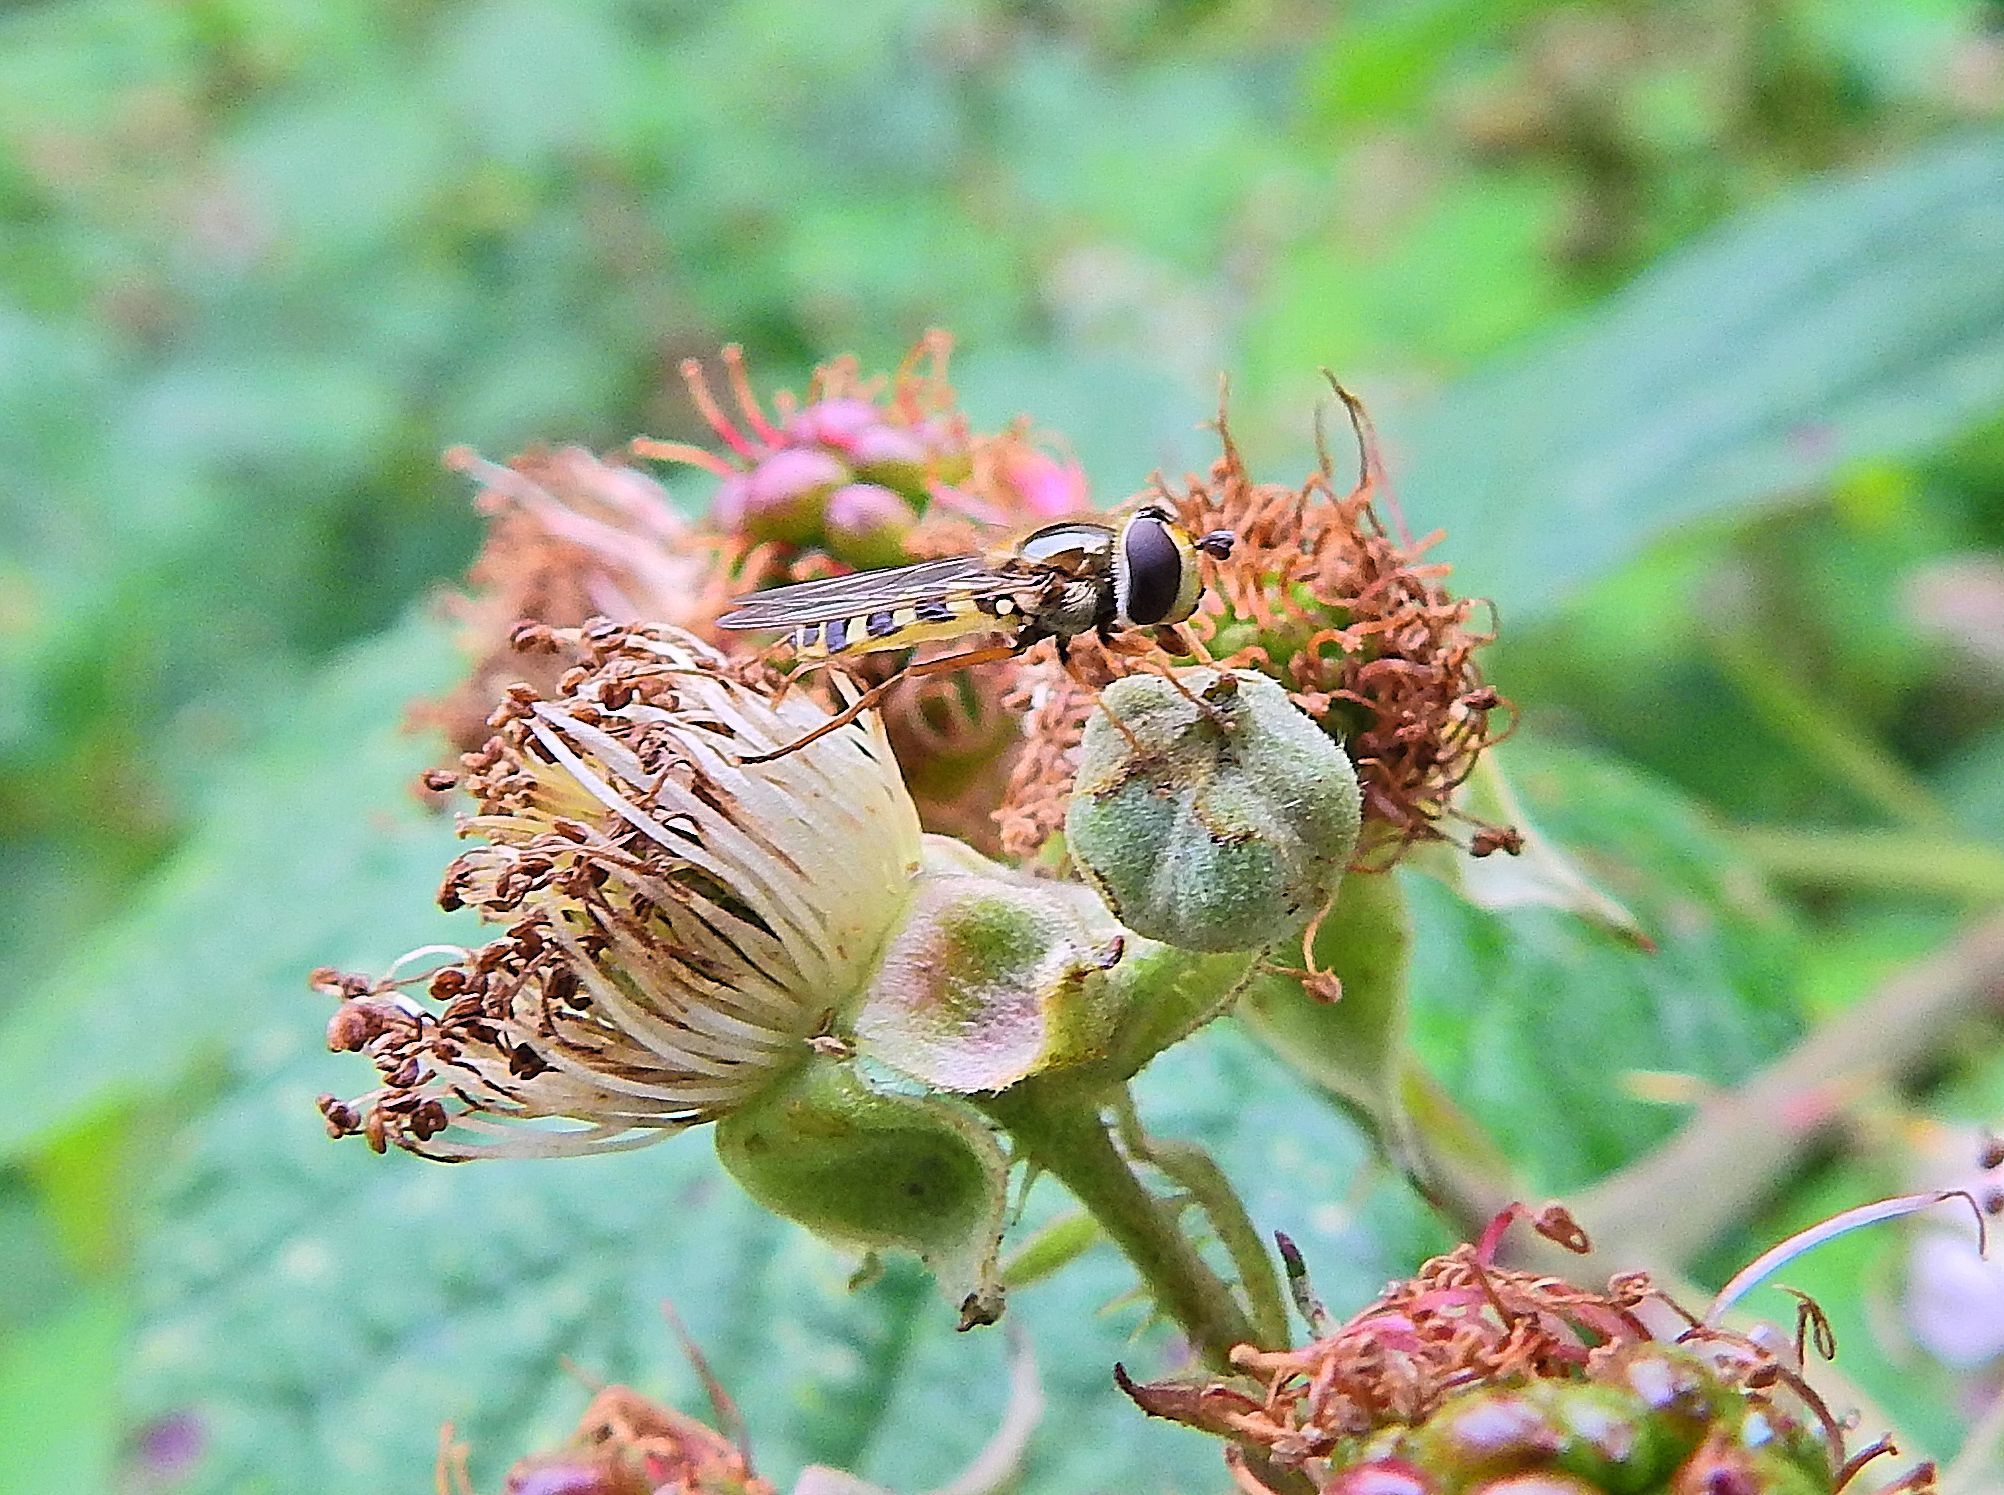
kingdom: Animalia
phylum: Arthropoda
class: Insecta
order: Diptera
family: Syrphidae
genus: Eupeodes
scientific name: Eupeodes corollae
